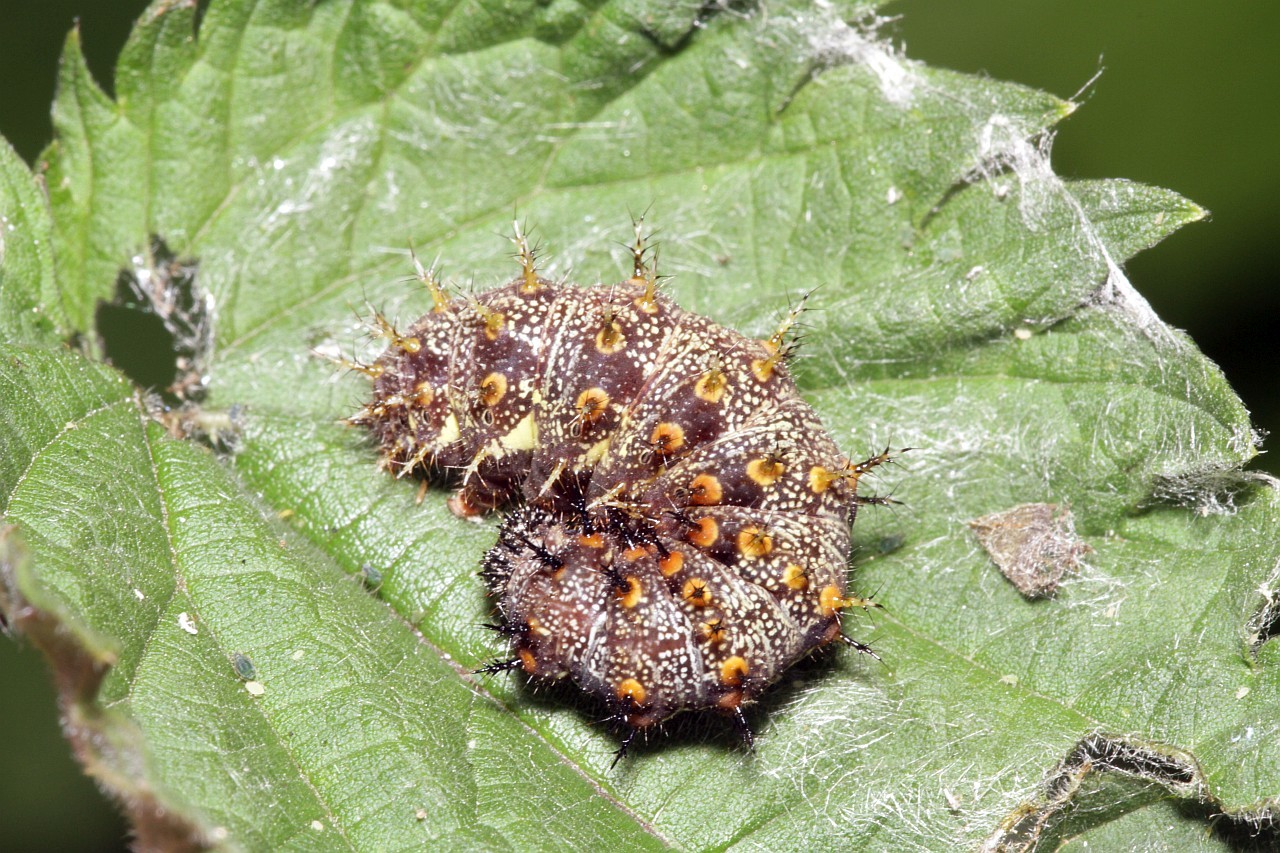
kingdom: Animalia
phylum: Arthropoda
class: Insecta
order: Lepidoptera
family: Nymphalidae
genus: Vanessa
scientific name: Vanessa atalanta
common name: Red admiral
